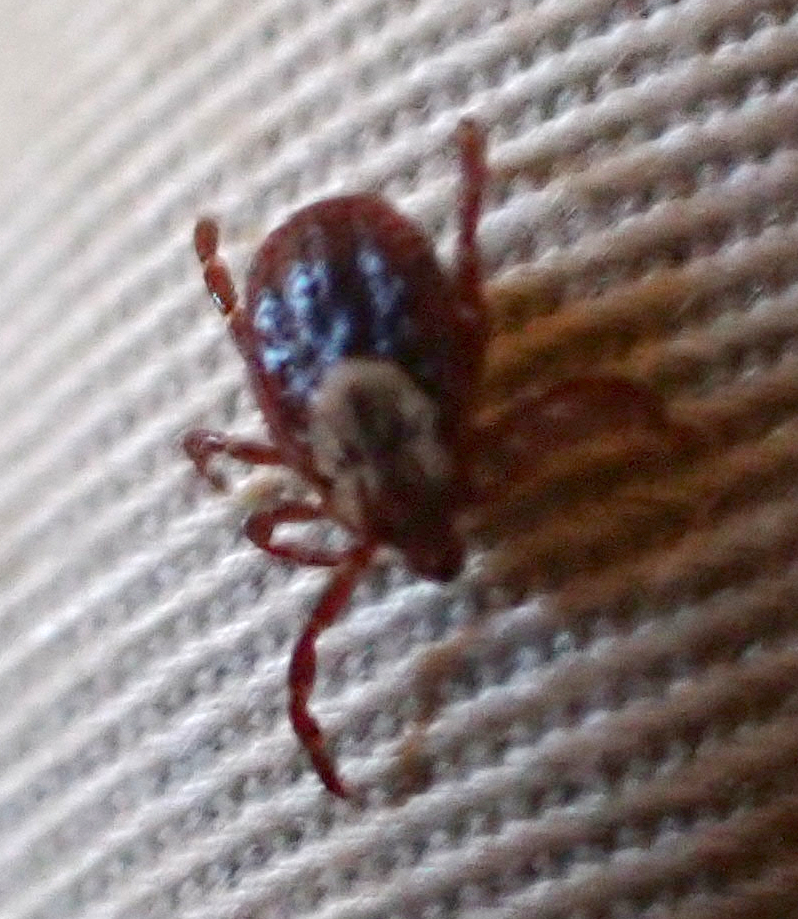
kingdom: Animalia
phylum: Arthropoda
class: Arachnida
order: Ixodida
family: Ixodidae
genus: Dermacentor
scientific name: Dermacentor variabilis
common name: American dog tick
